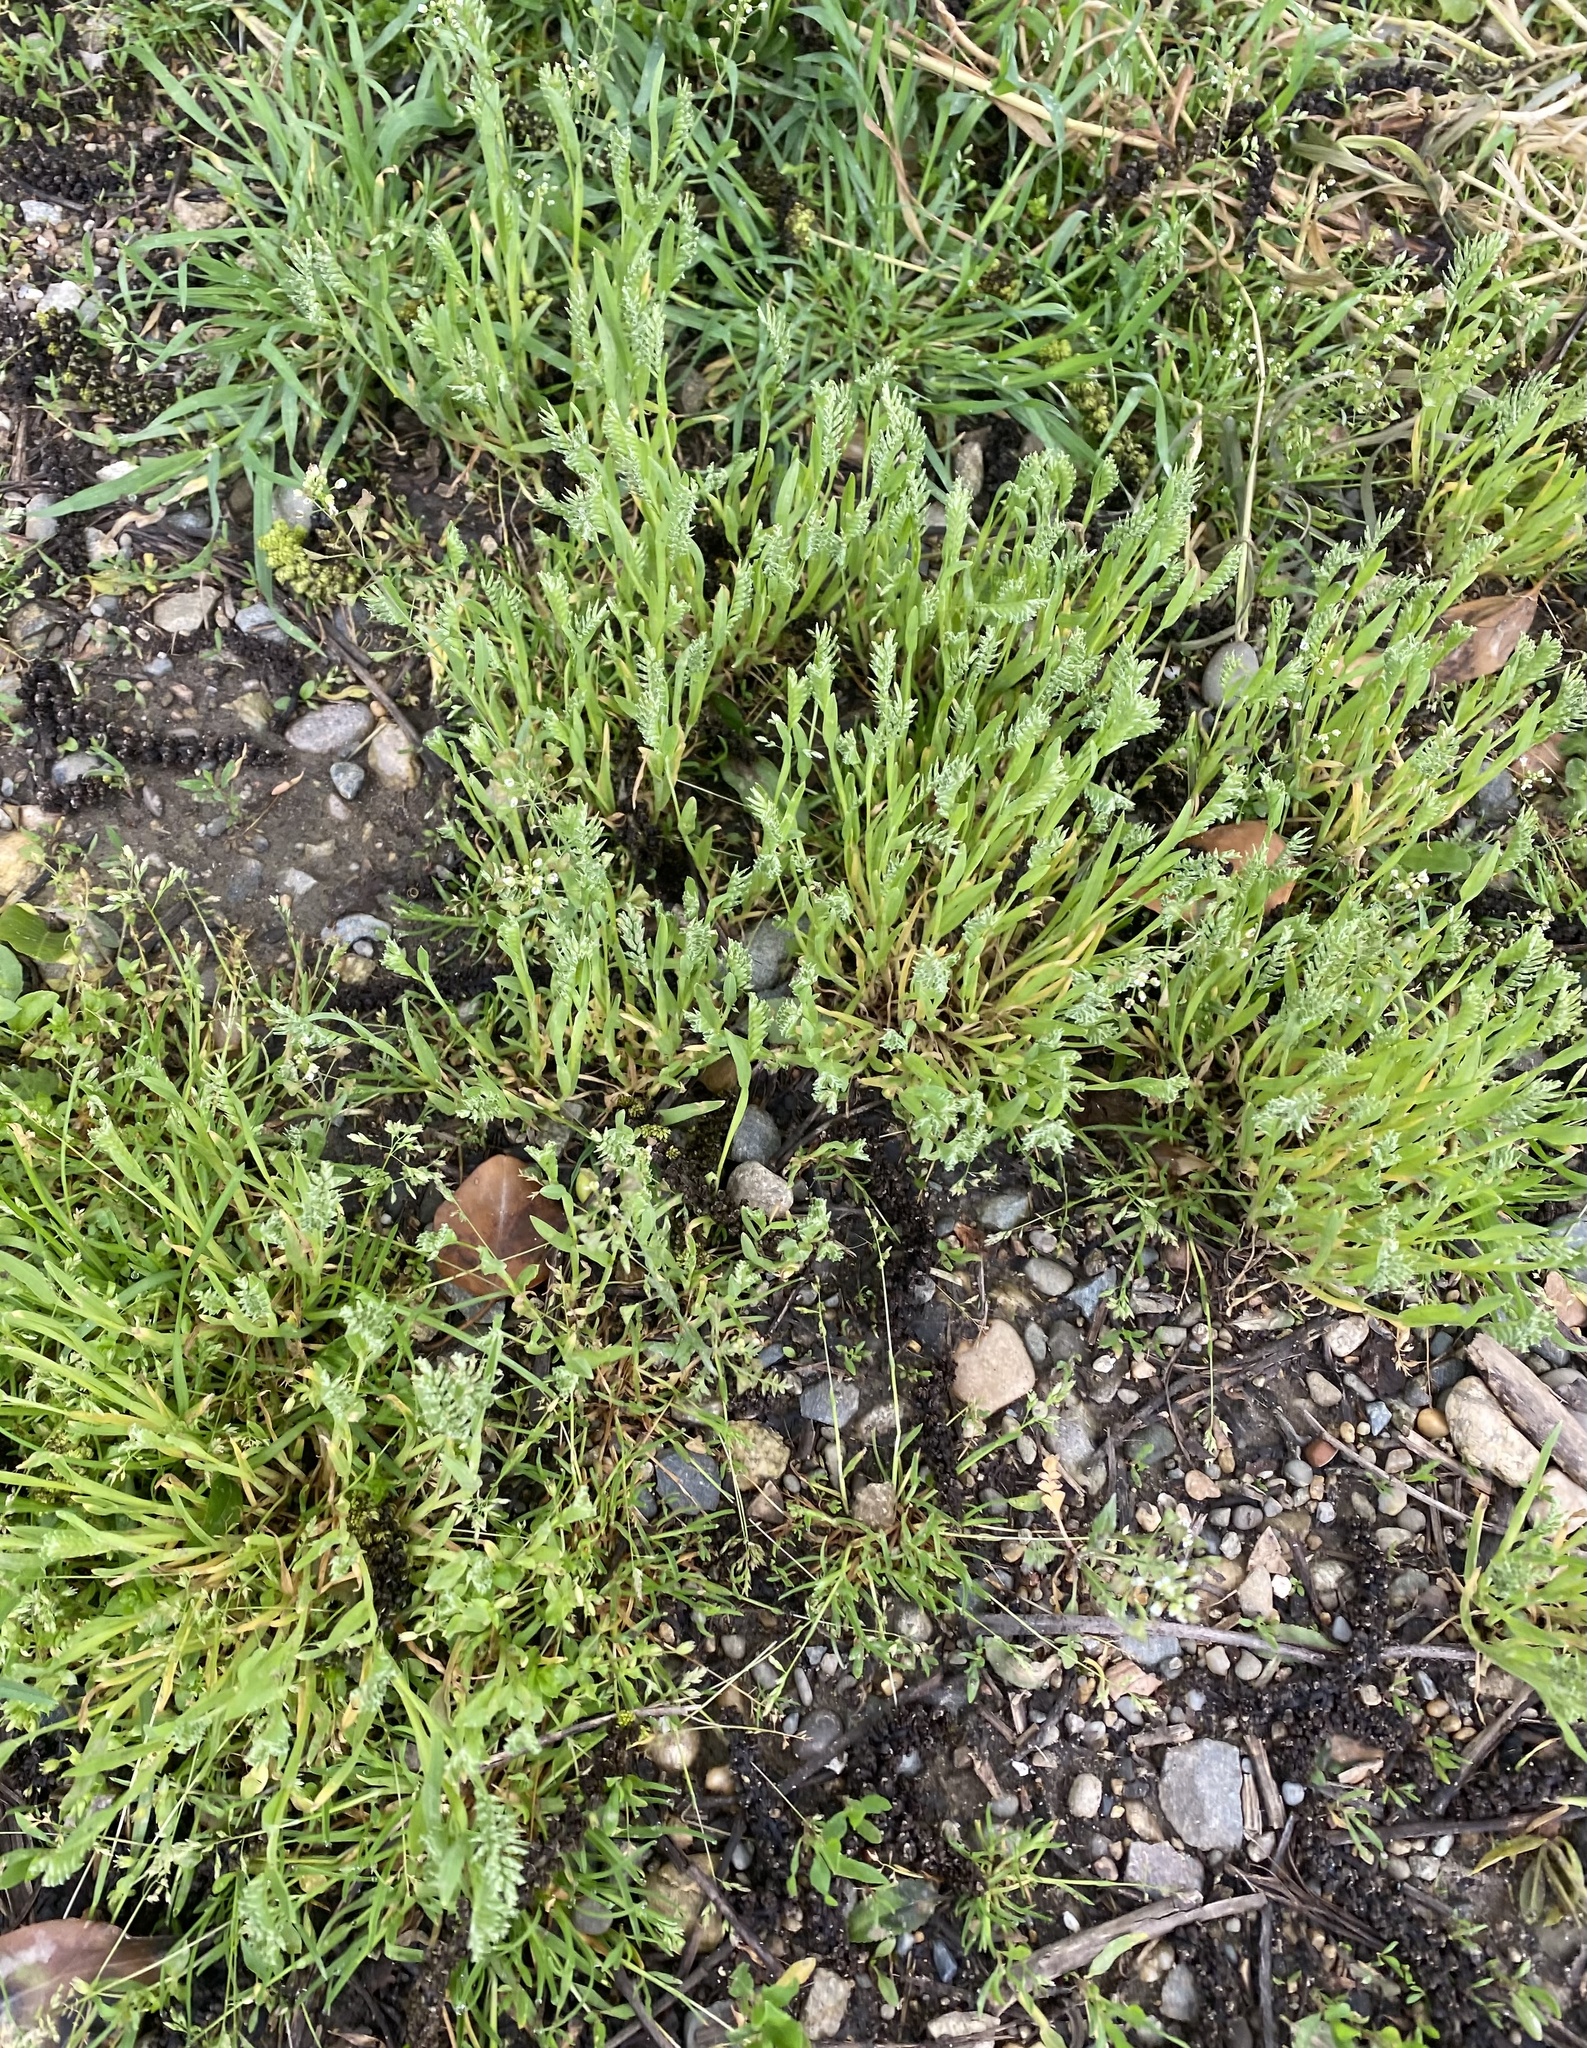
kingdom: Plantae
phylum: Tracheophyta
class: Liliopsida
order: Poales
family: Poaceae
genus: Sclerochloa
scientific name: Sclerochloa dura
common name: Common hardgrass
